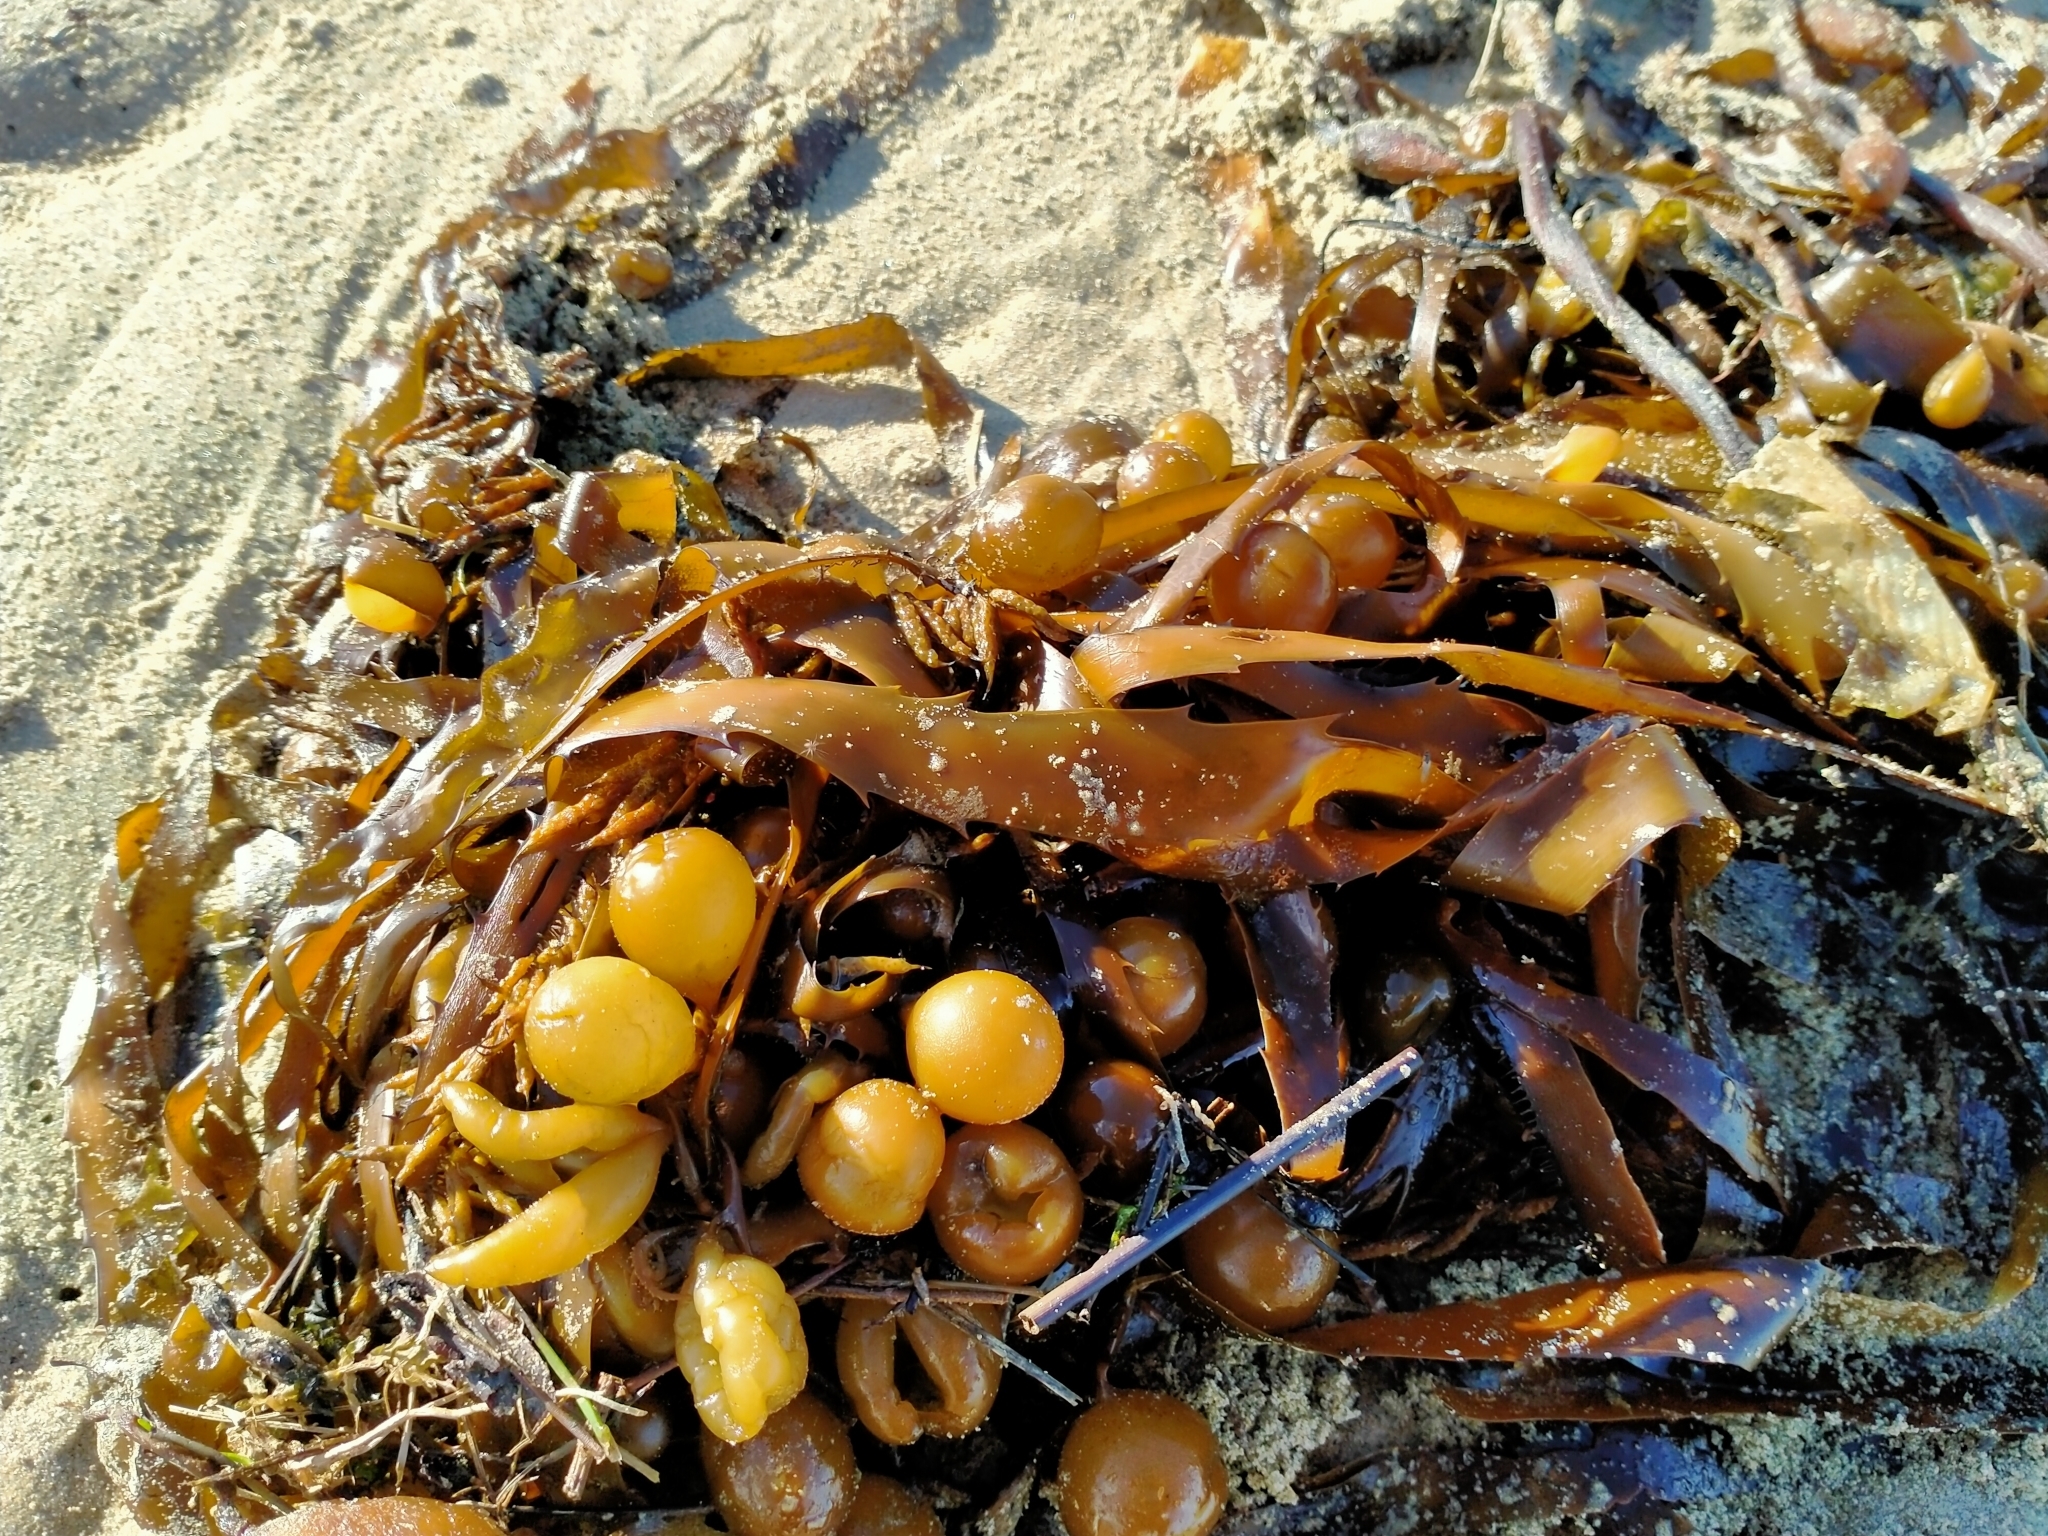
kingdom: Chromista
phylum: Ochrophyta
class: Phaeophyceae
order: Fucales
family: Seirococcaceae
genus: Marginariella
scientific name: Marginariella urvilliana
